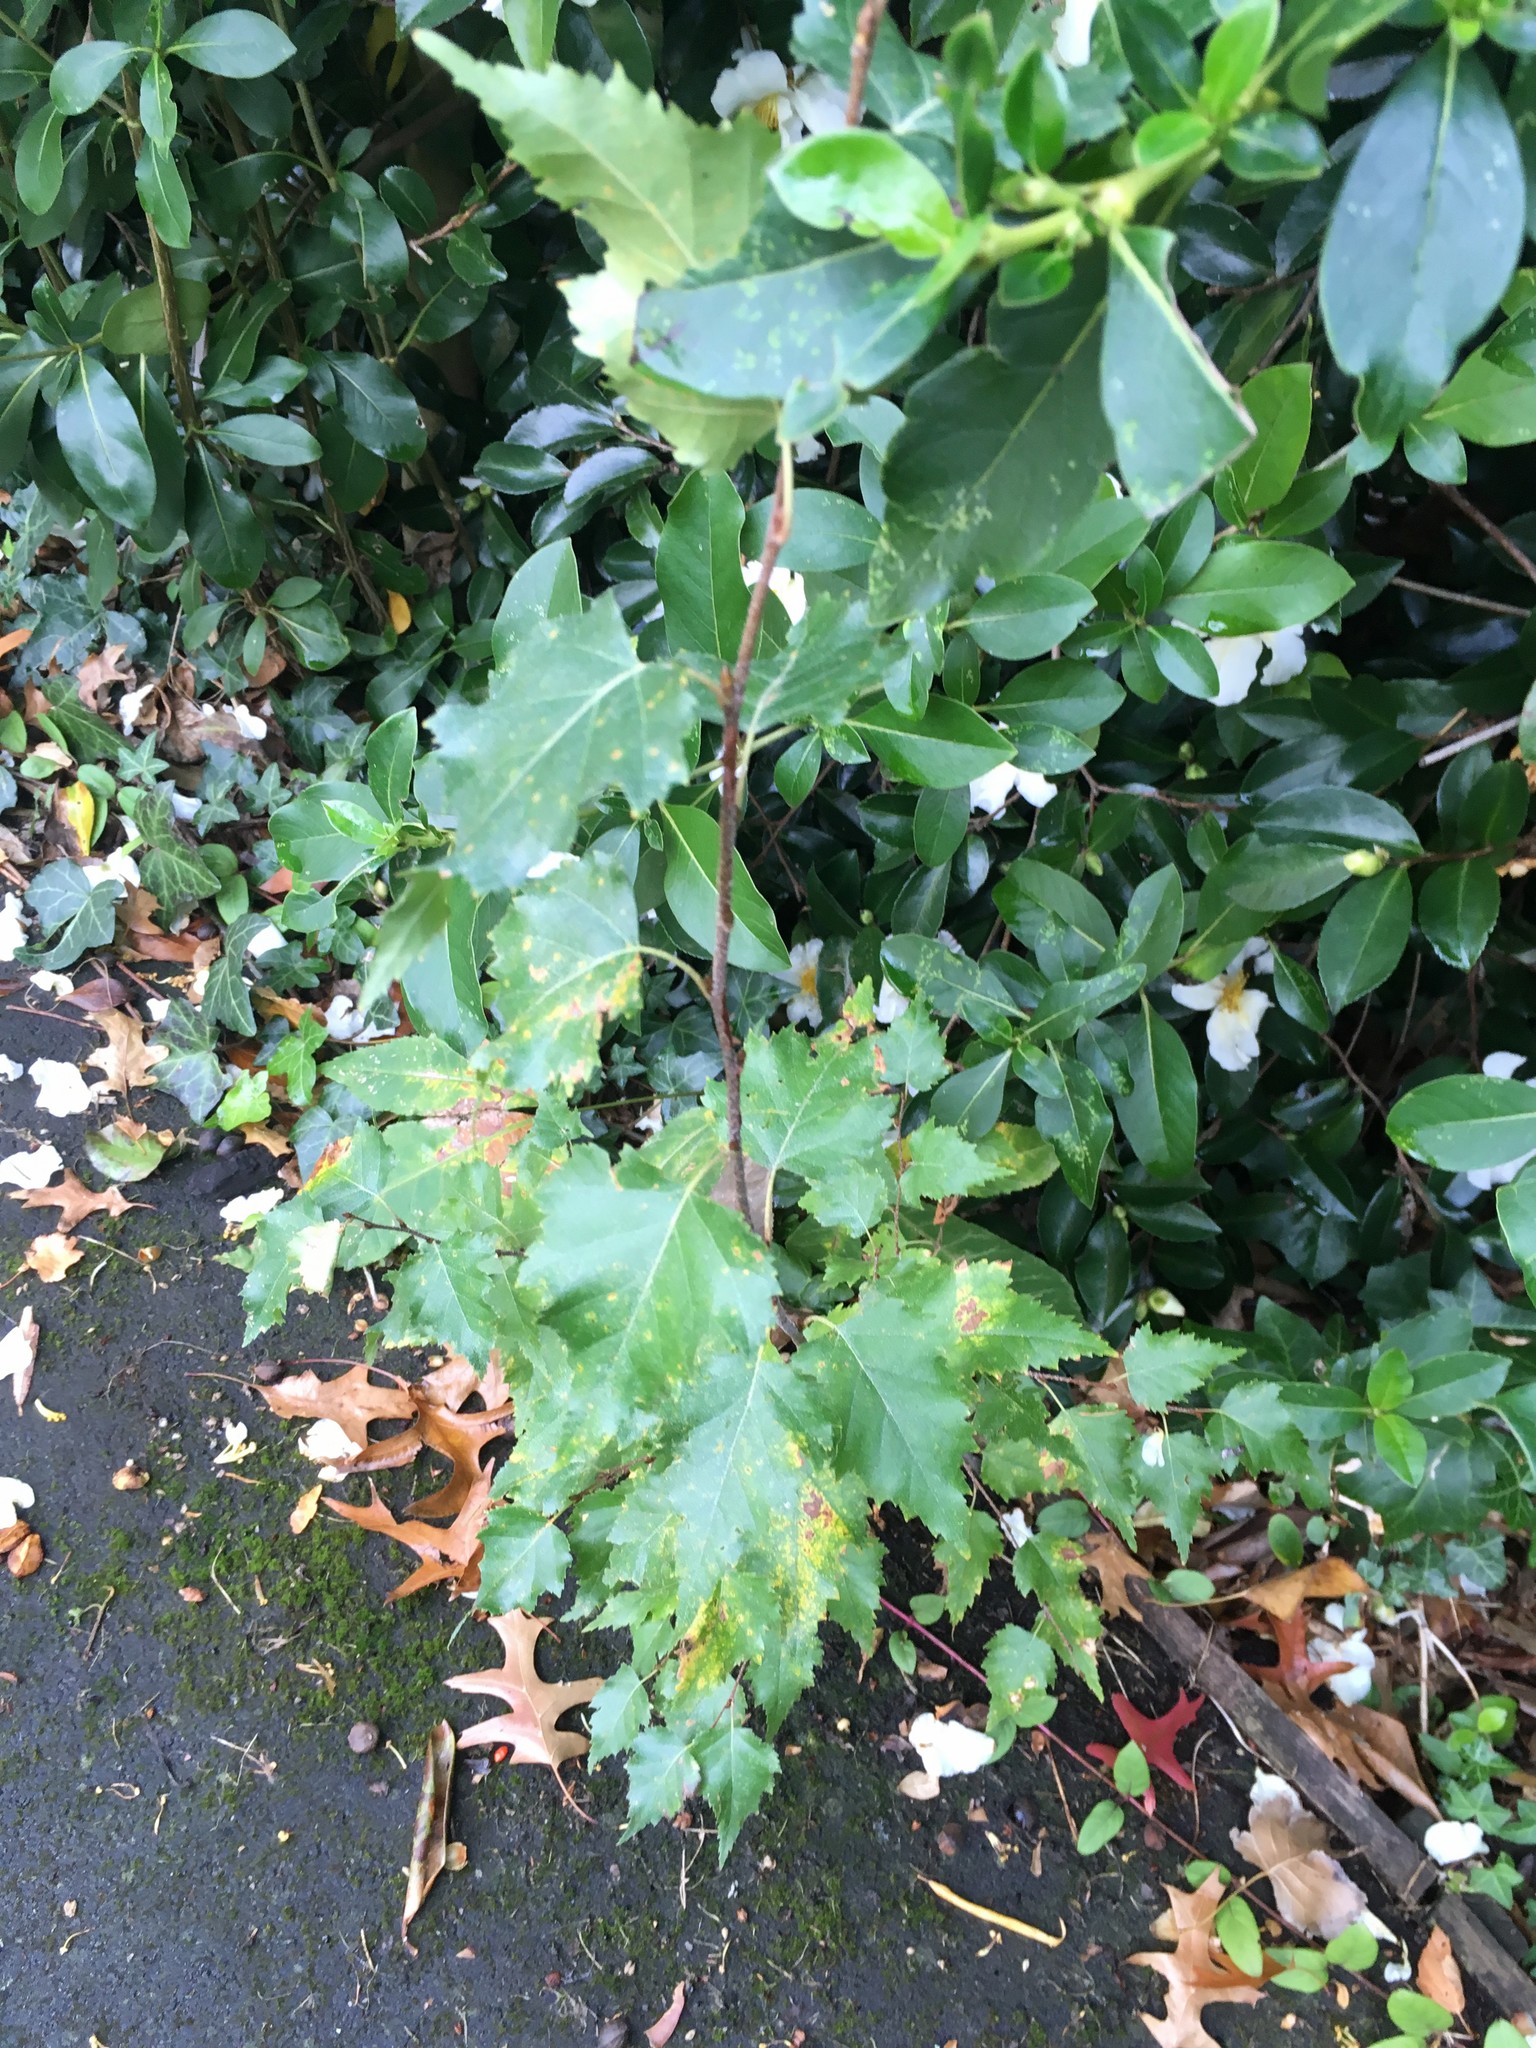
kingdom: Plantae
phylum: Tracheophyta
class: Magnoliopsida
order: Fagales
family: Betulaceae
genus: Betula
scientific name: Betula pendula
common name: Silver birch
